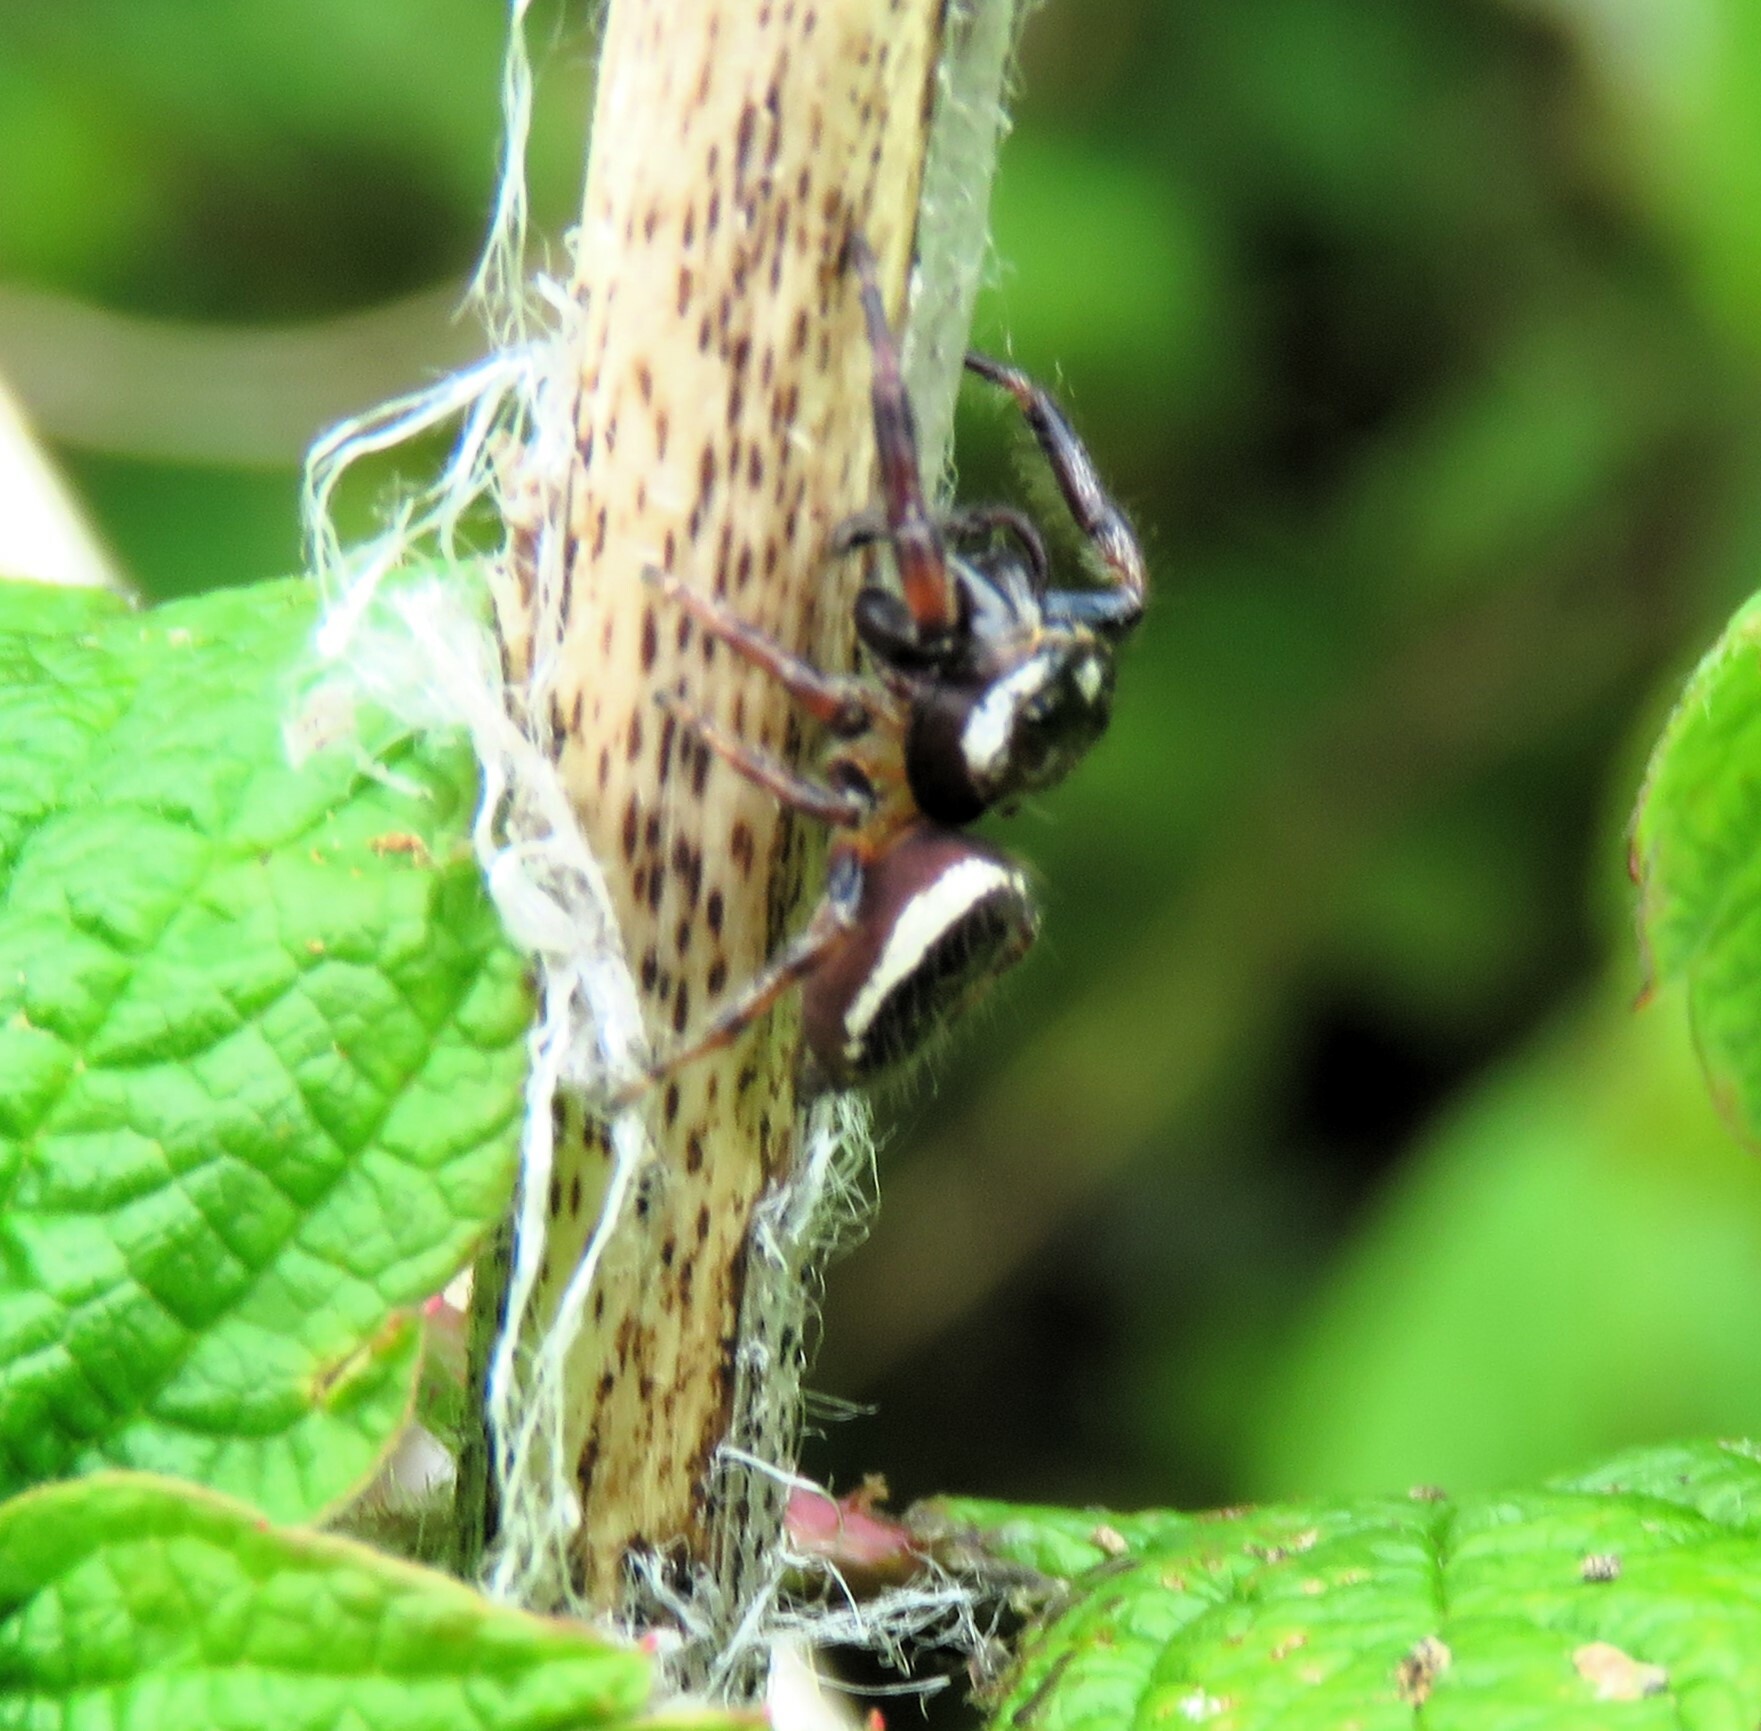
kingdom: Animalia
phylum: Arthropoda
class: Arachnida
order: Araneae
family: Salticidae
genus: Eris
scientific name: Eris militaris
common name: Bronze jumper
